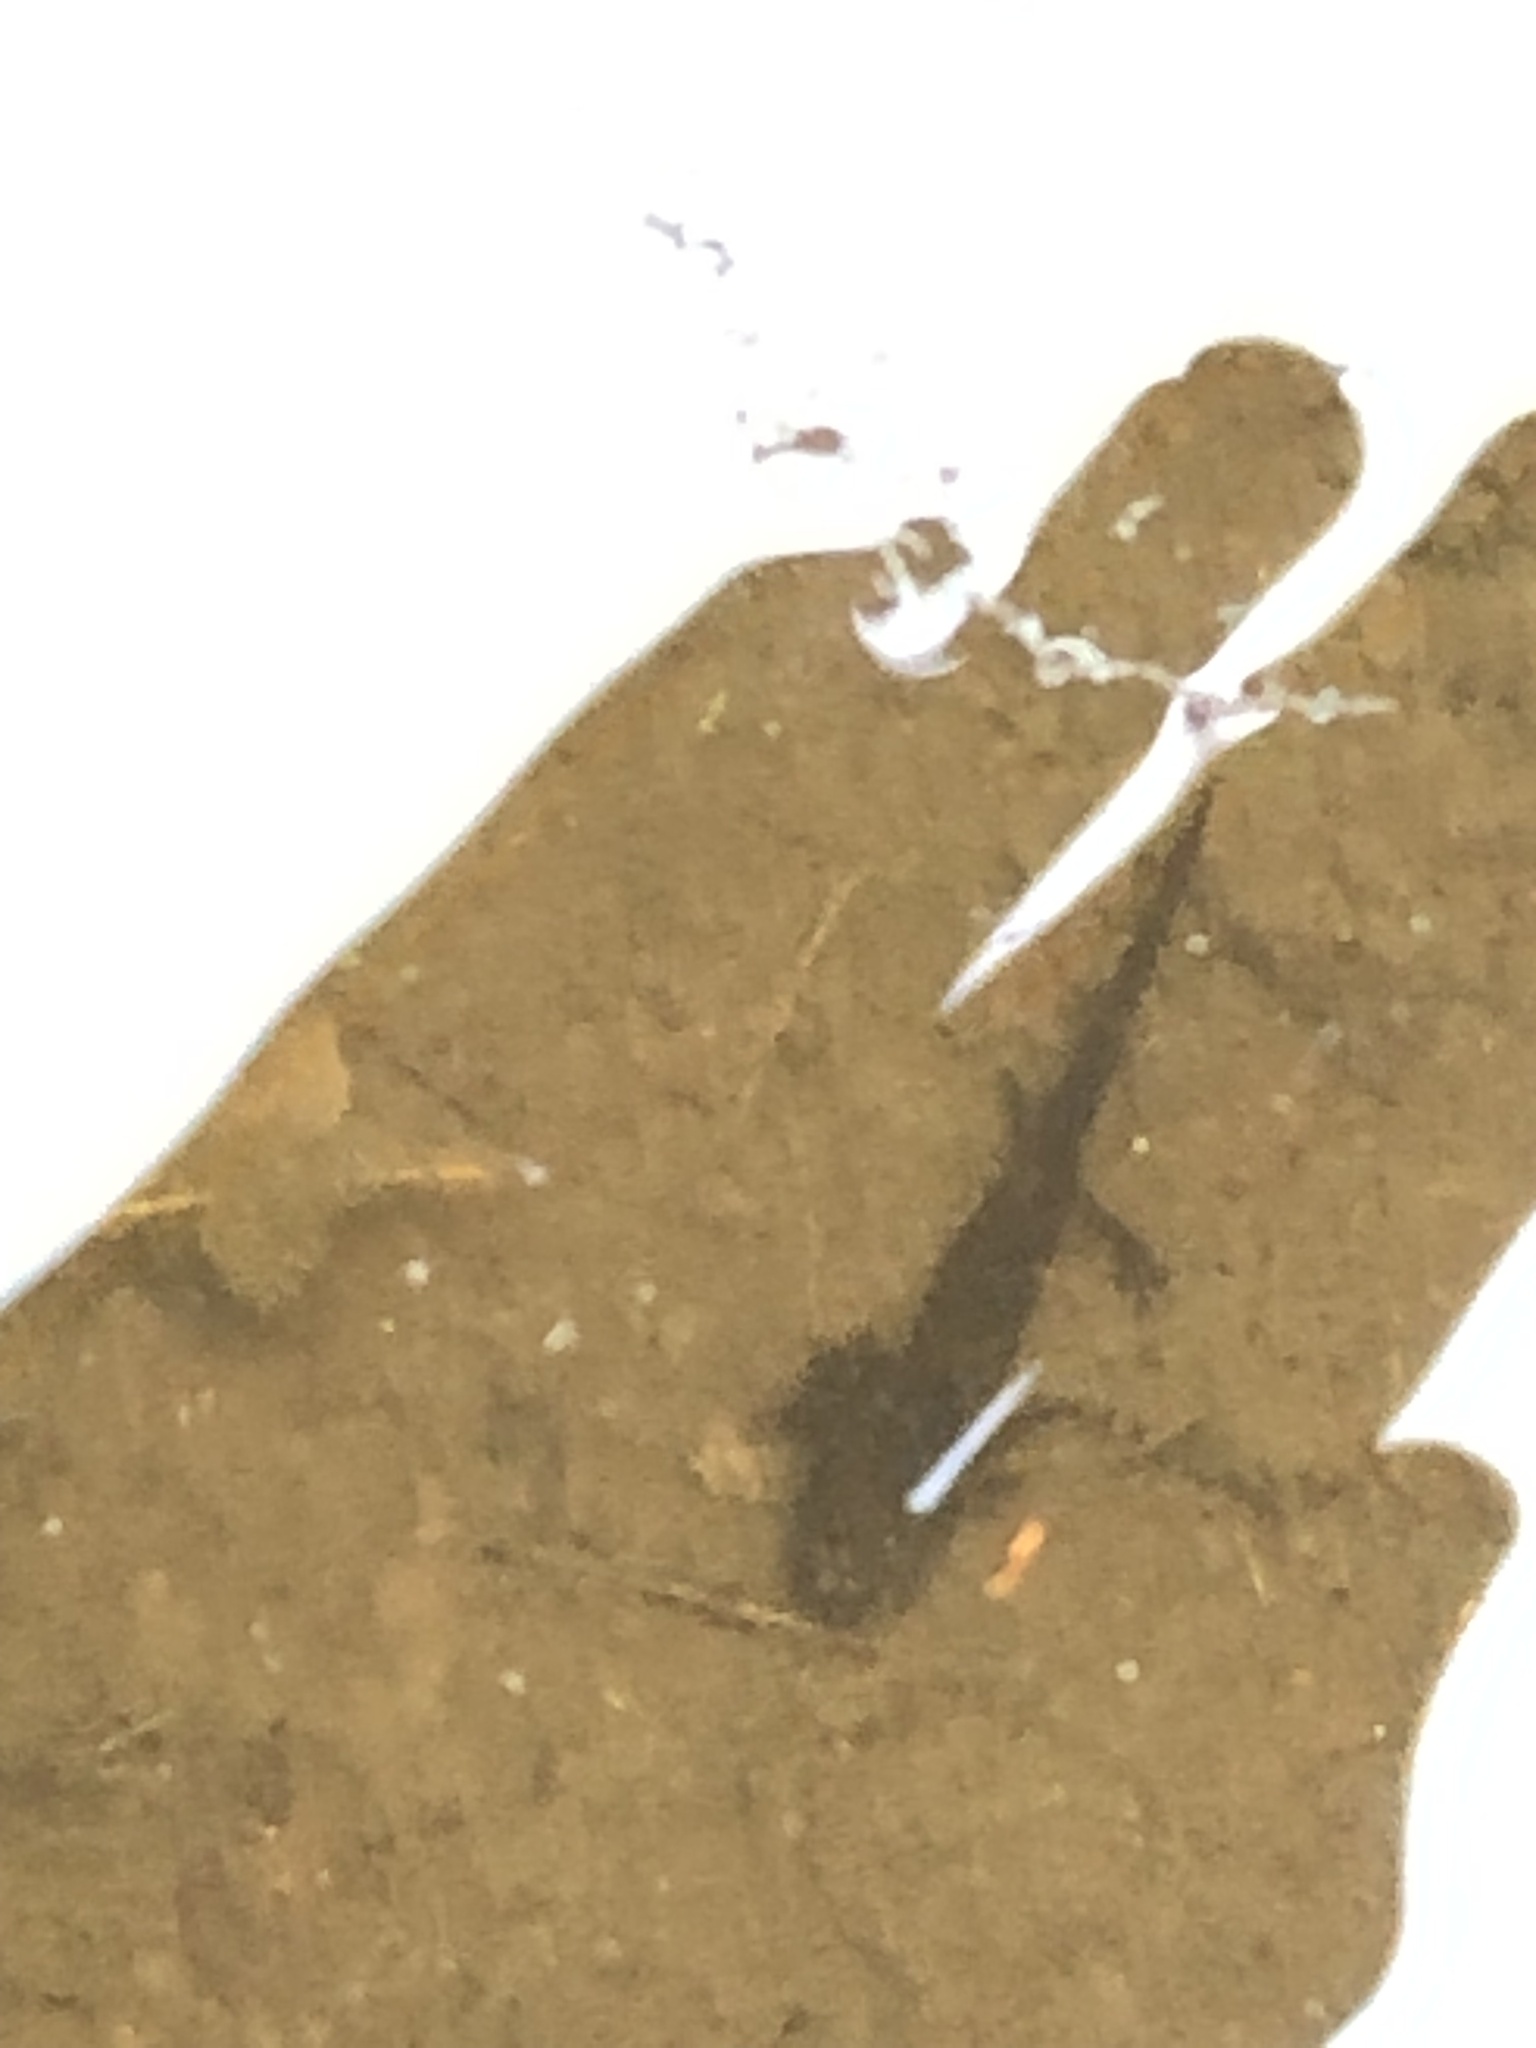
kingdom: Animalia
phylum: Chordata
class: Amphibia
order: Caudata
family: Ambystomatidae
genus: Ambystoma
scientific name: Ambystoma maculatum
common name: Spotted salamander
